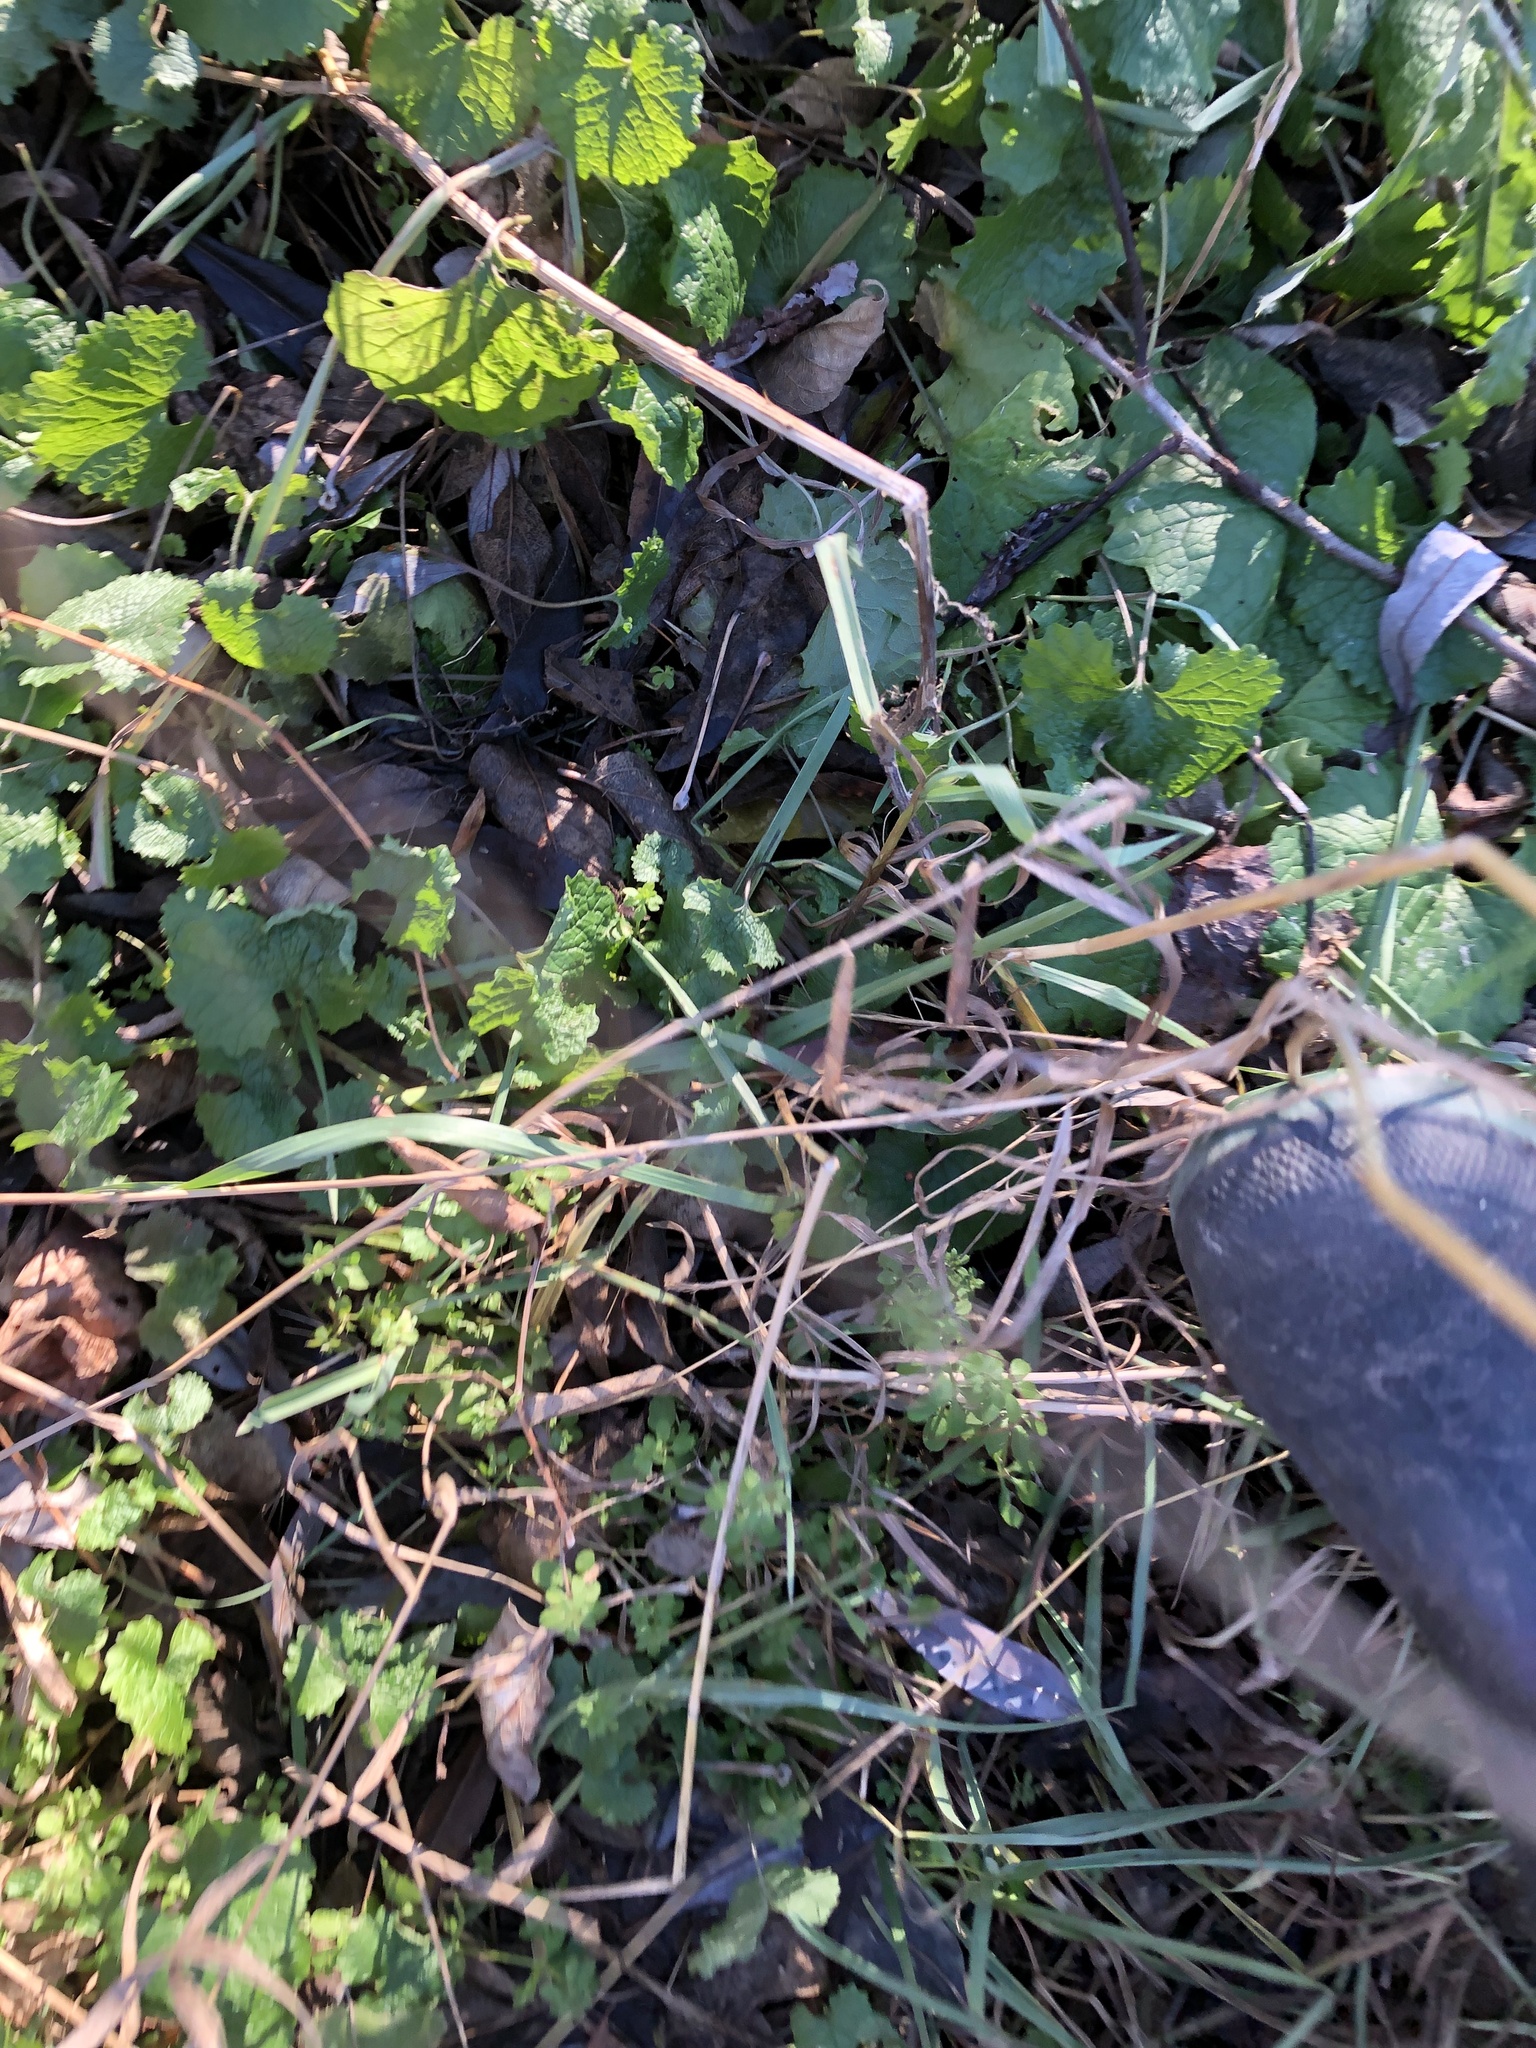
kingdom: Plantae
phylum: Tracheophyta
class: Magnoliopsida
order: Brassicales
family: Brassicaceae
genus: Alliaria
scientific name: Alliaria petiolata
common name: Garlic mustard
